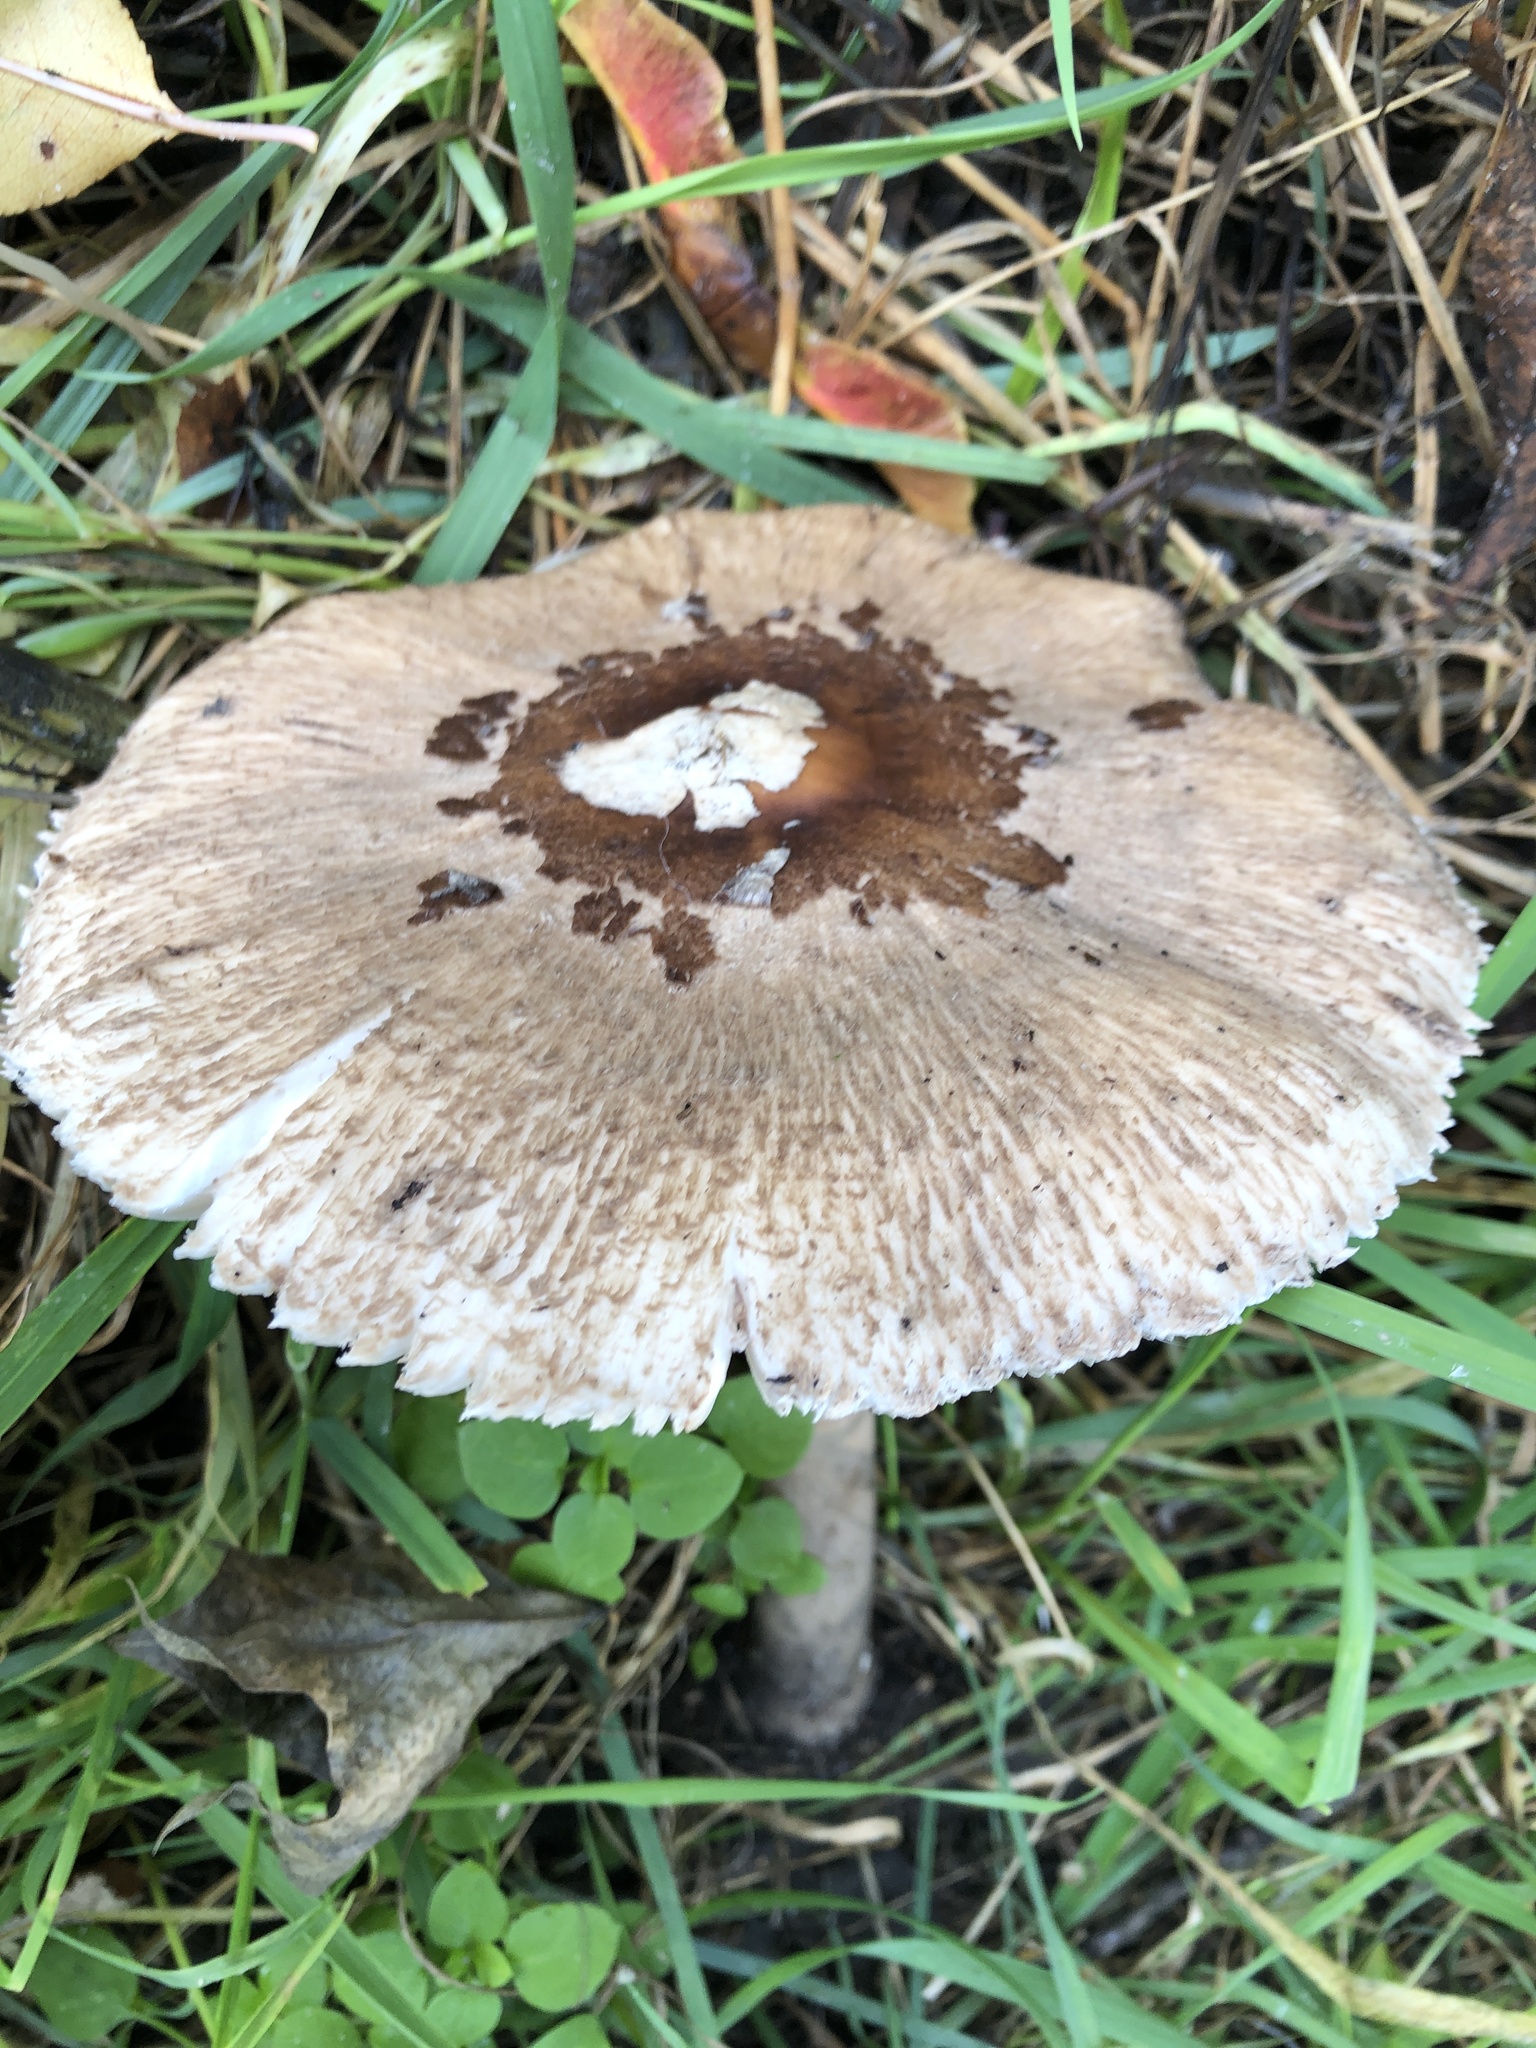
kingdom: Fungi
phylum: Basidiomycota
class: Agaricomycetes
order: Agaricales
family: Agaricaceae
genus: Macrolepiota
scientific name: Macrolepiota procera
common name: Parasol
